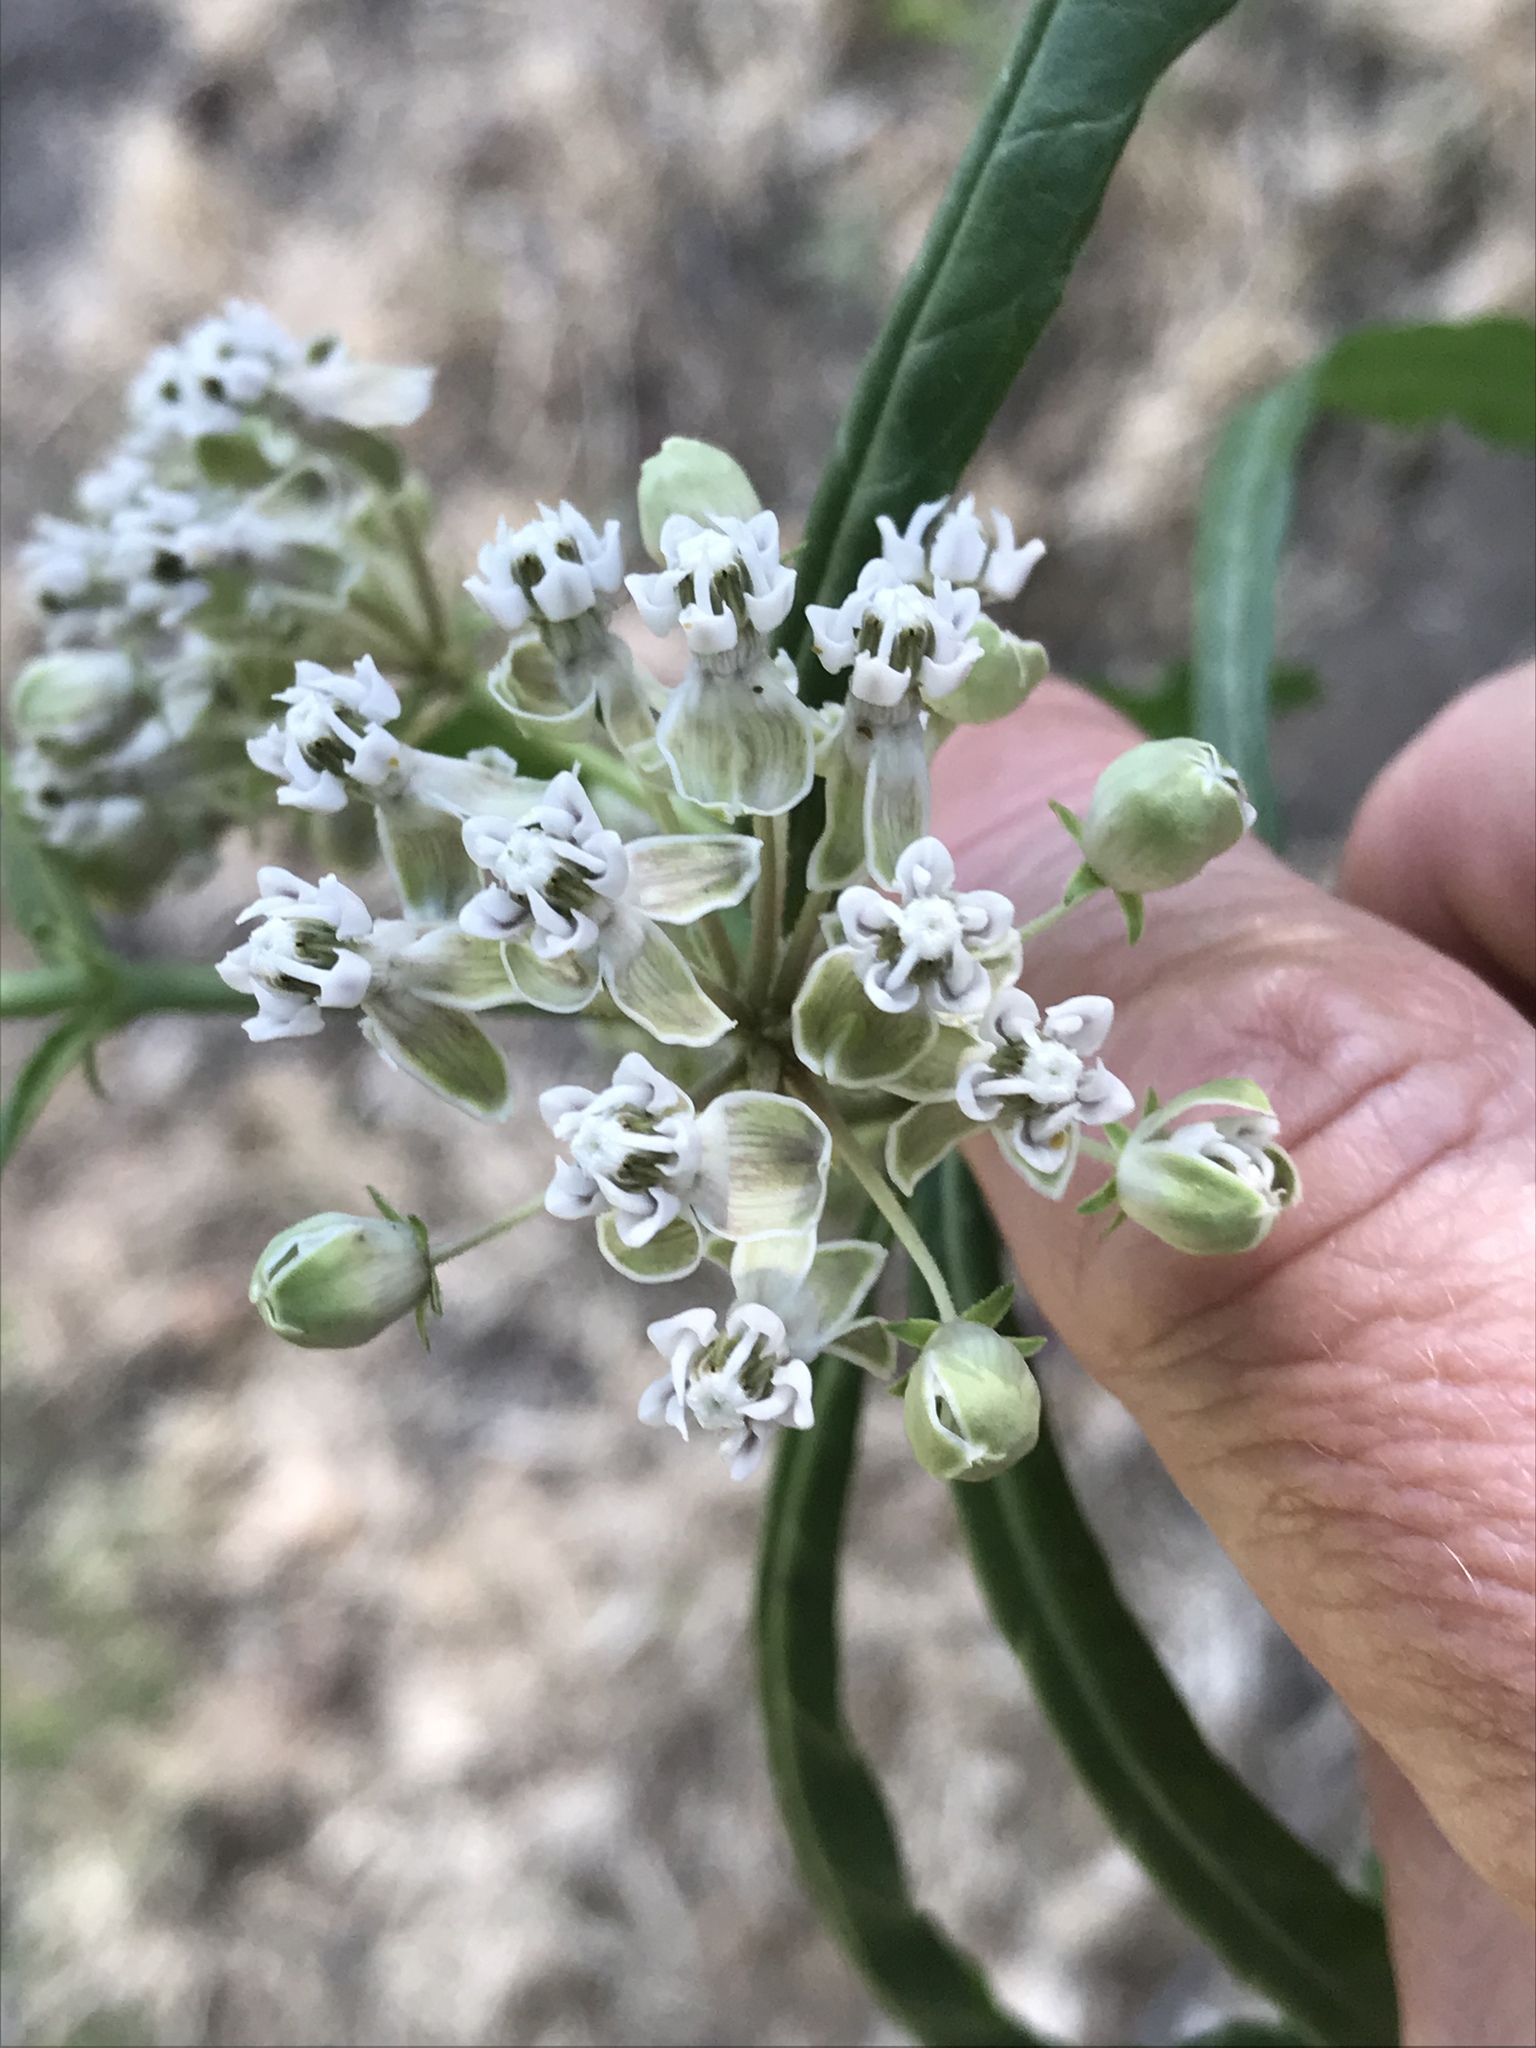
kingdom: Plantae
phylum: Tracheophyta
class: Magnoliopsida
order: Gentianales
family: Apocynaceae
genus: Asclepias
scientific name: Asclepias fascicularis
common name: Mexican milkweed
